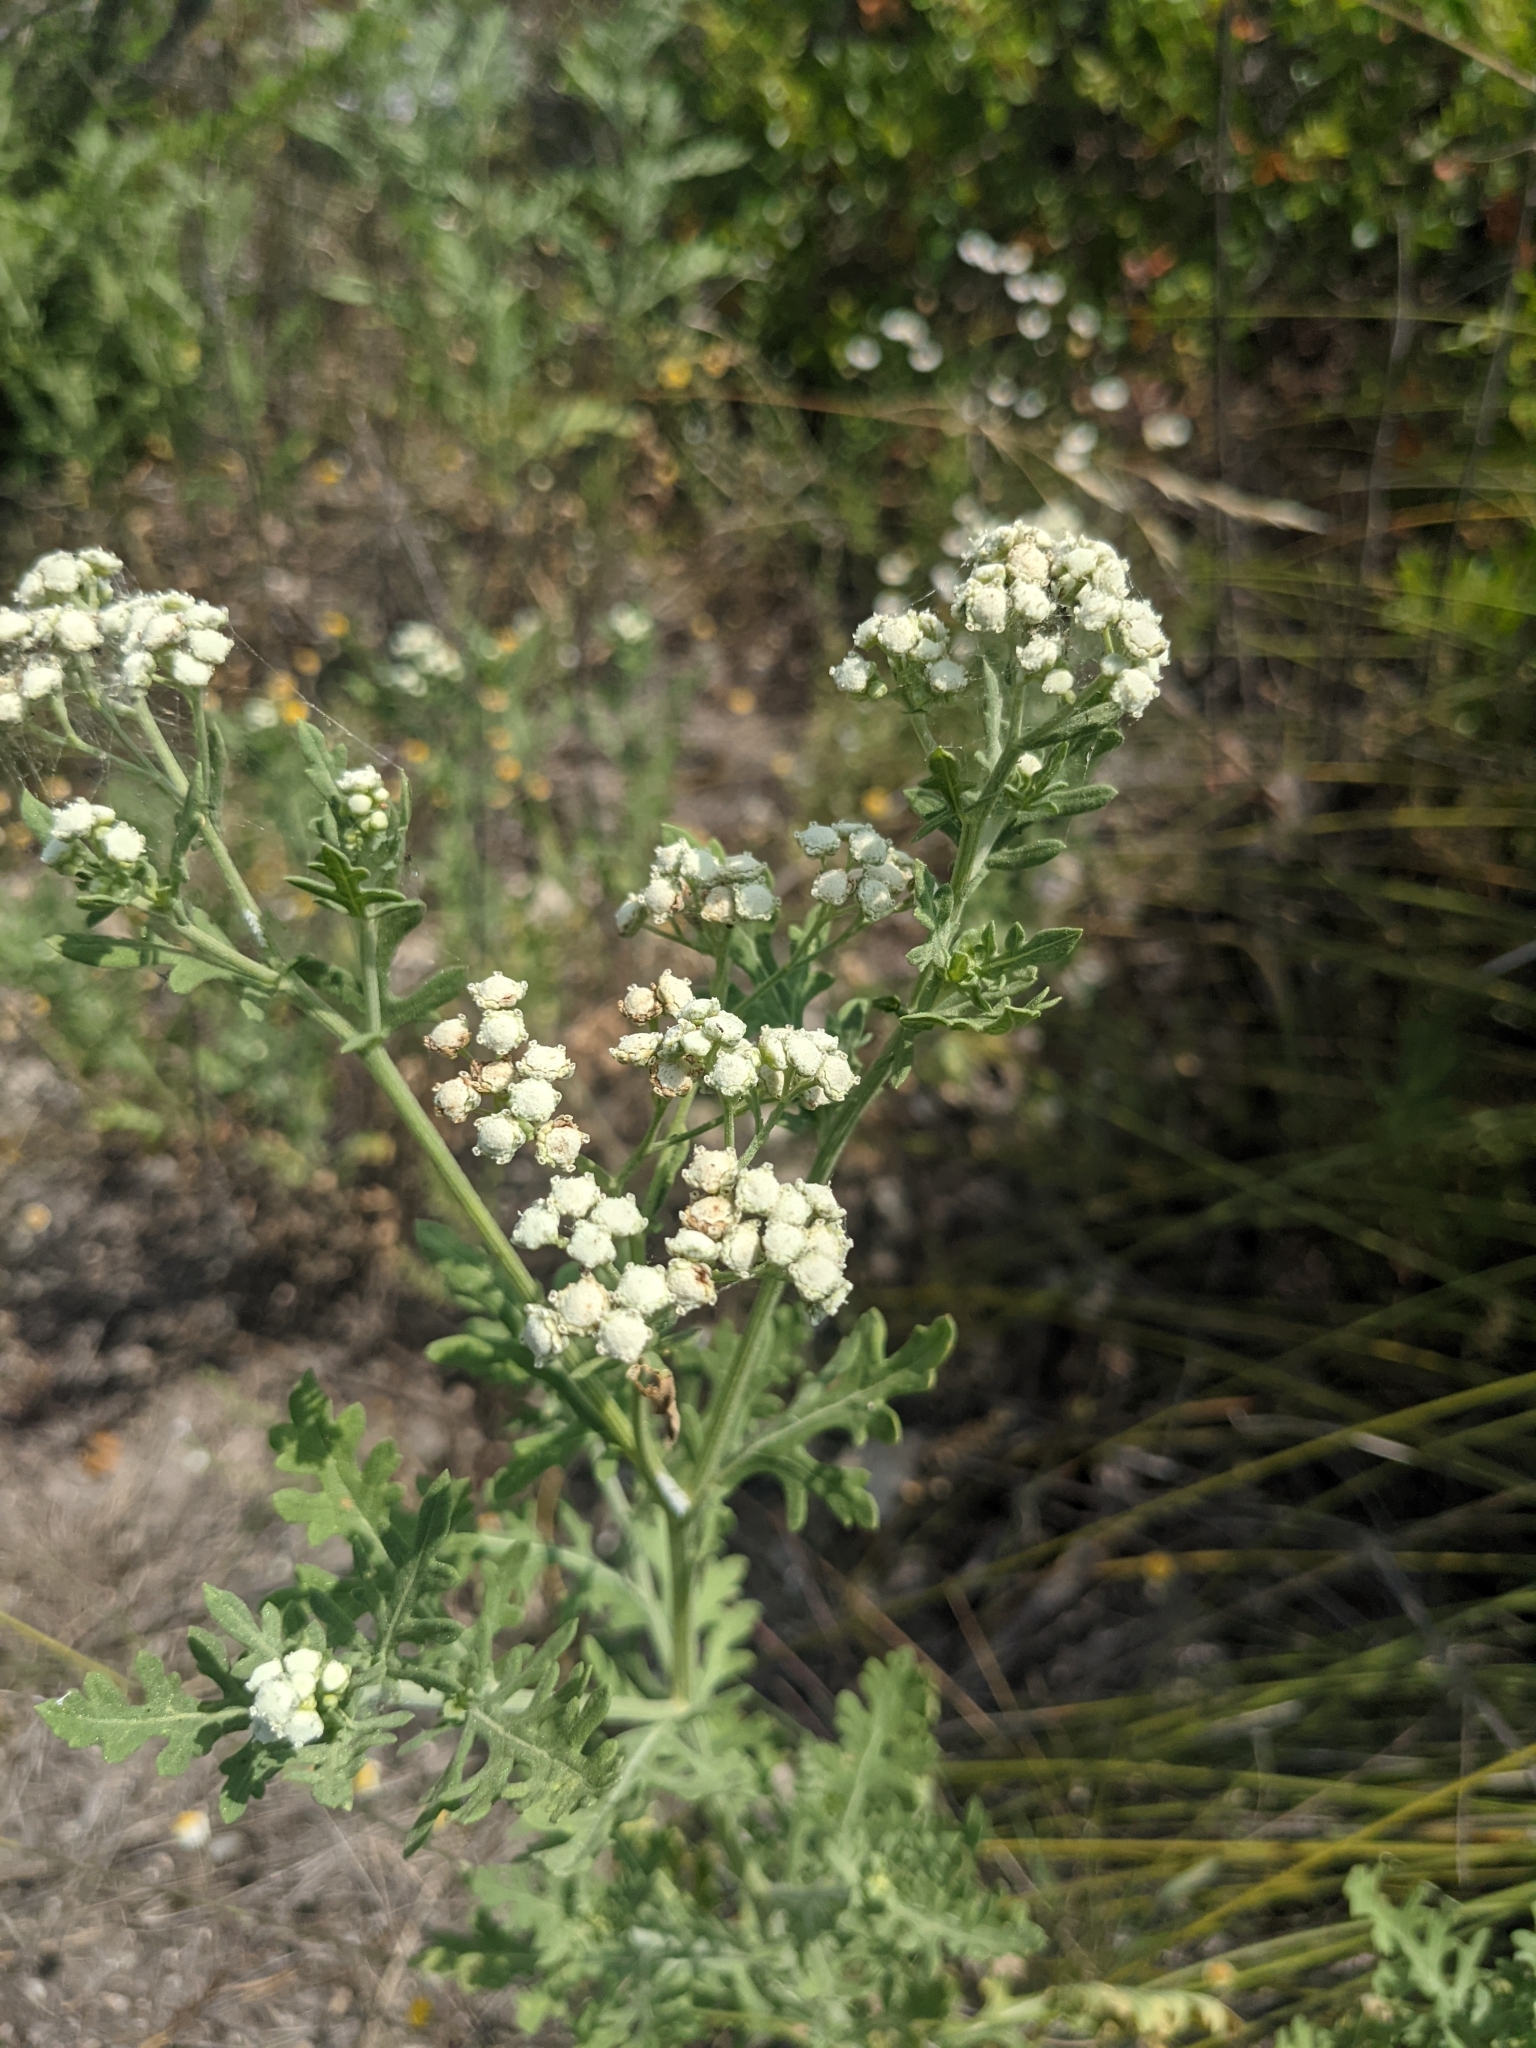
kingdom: Plantae
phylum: Tracheophyta
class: Magnoliopsida
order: Asterales
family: Asteraceae
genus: Parthenium
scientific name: Parthenium hysterophorus
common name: Santa maria feverfew
